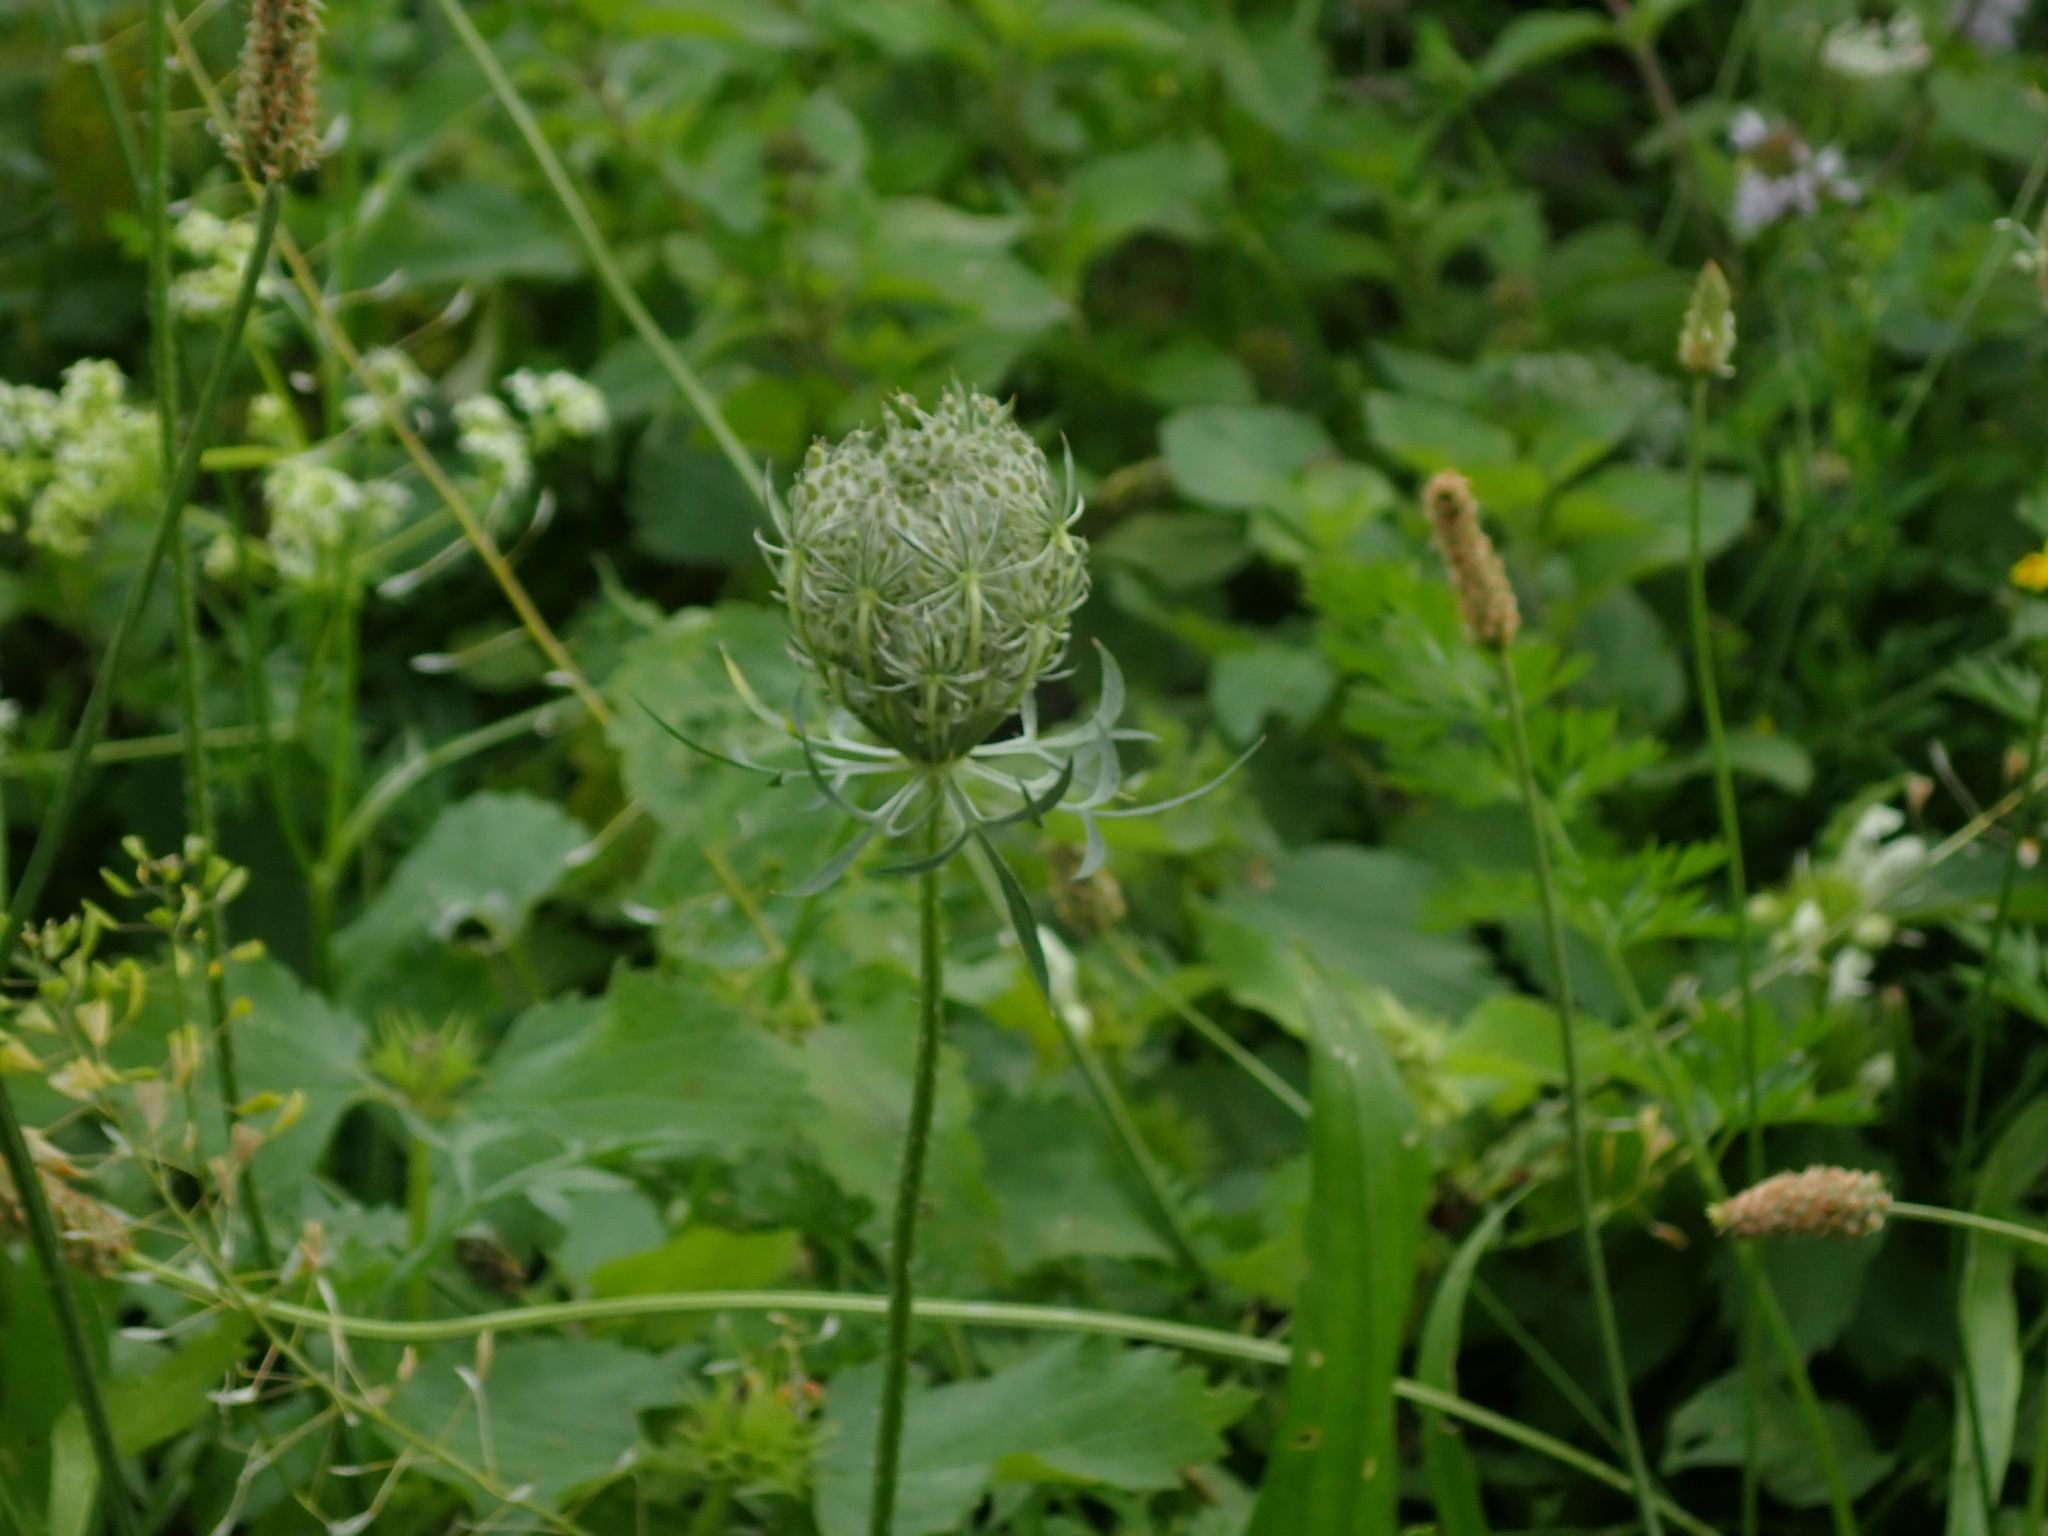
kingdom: Plantae
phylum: Tracheophyta
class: Magnoliopsida
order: Apiales
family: Apiaceae
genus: Daucus
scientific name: Daucus carota
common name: Wild carrot
